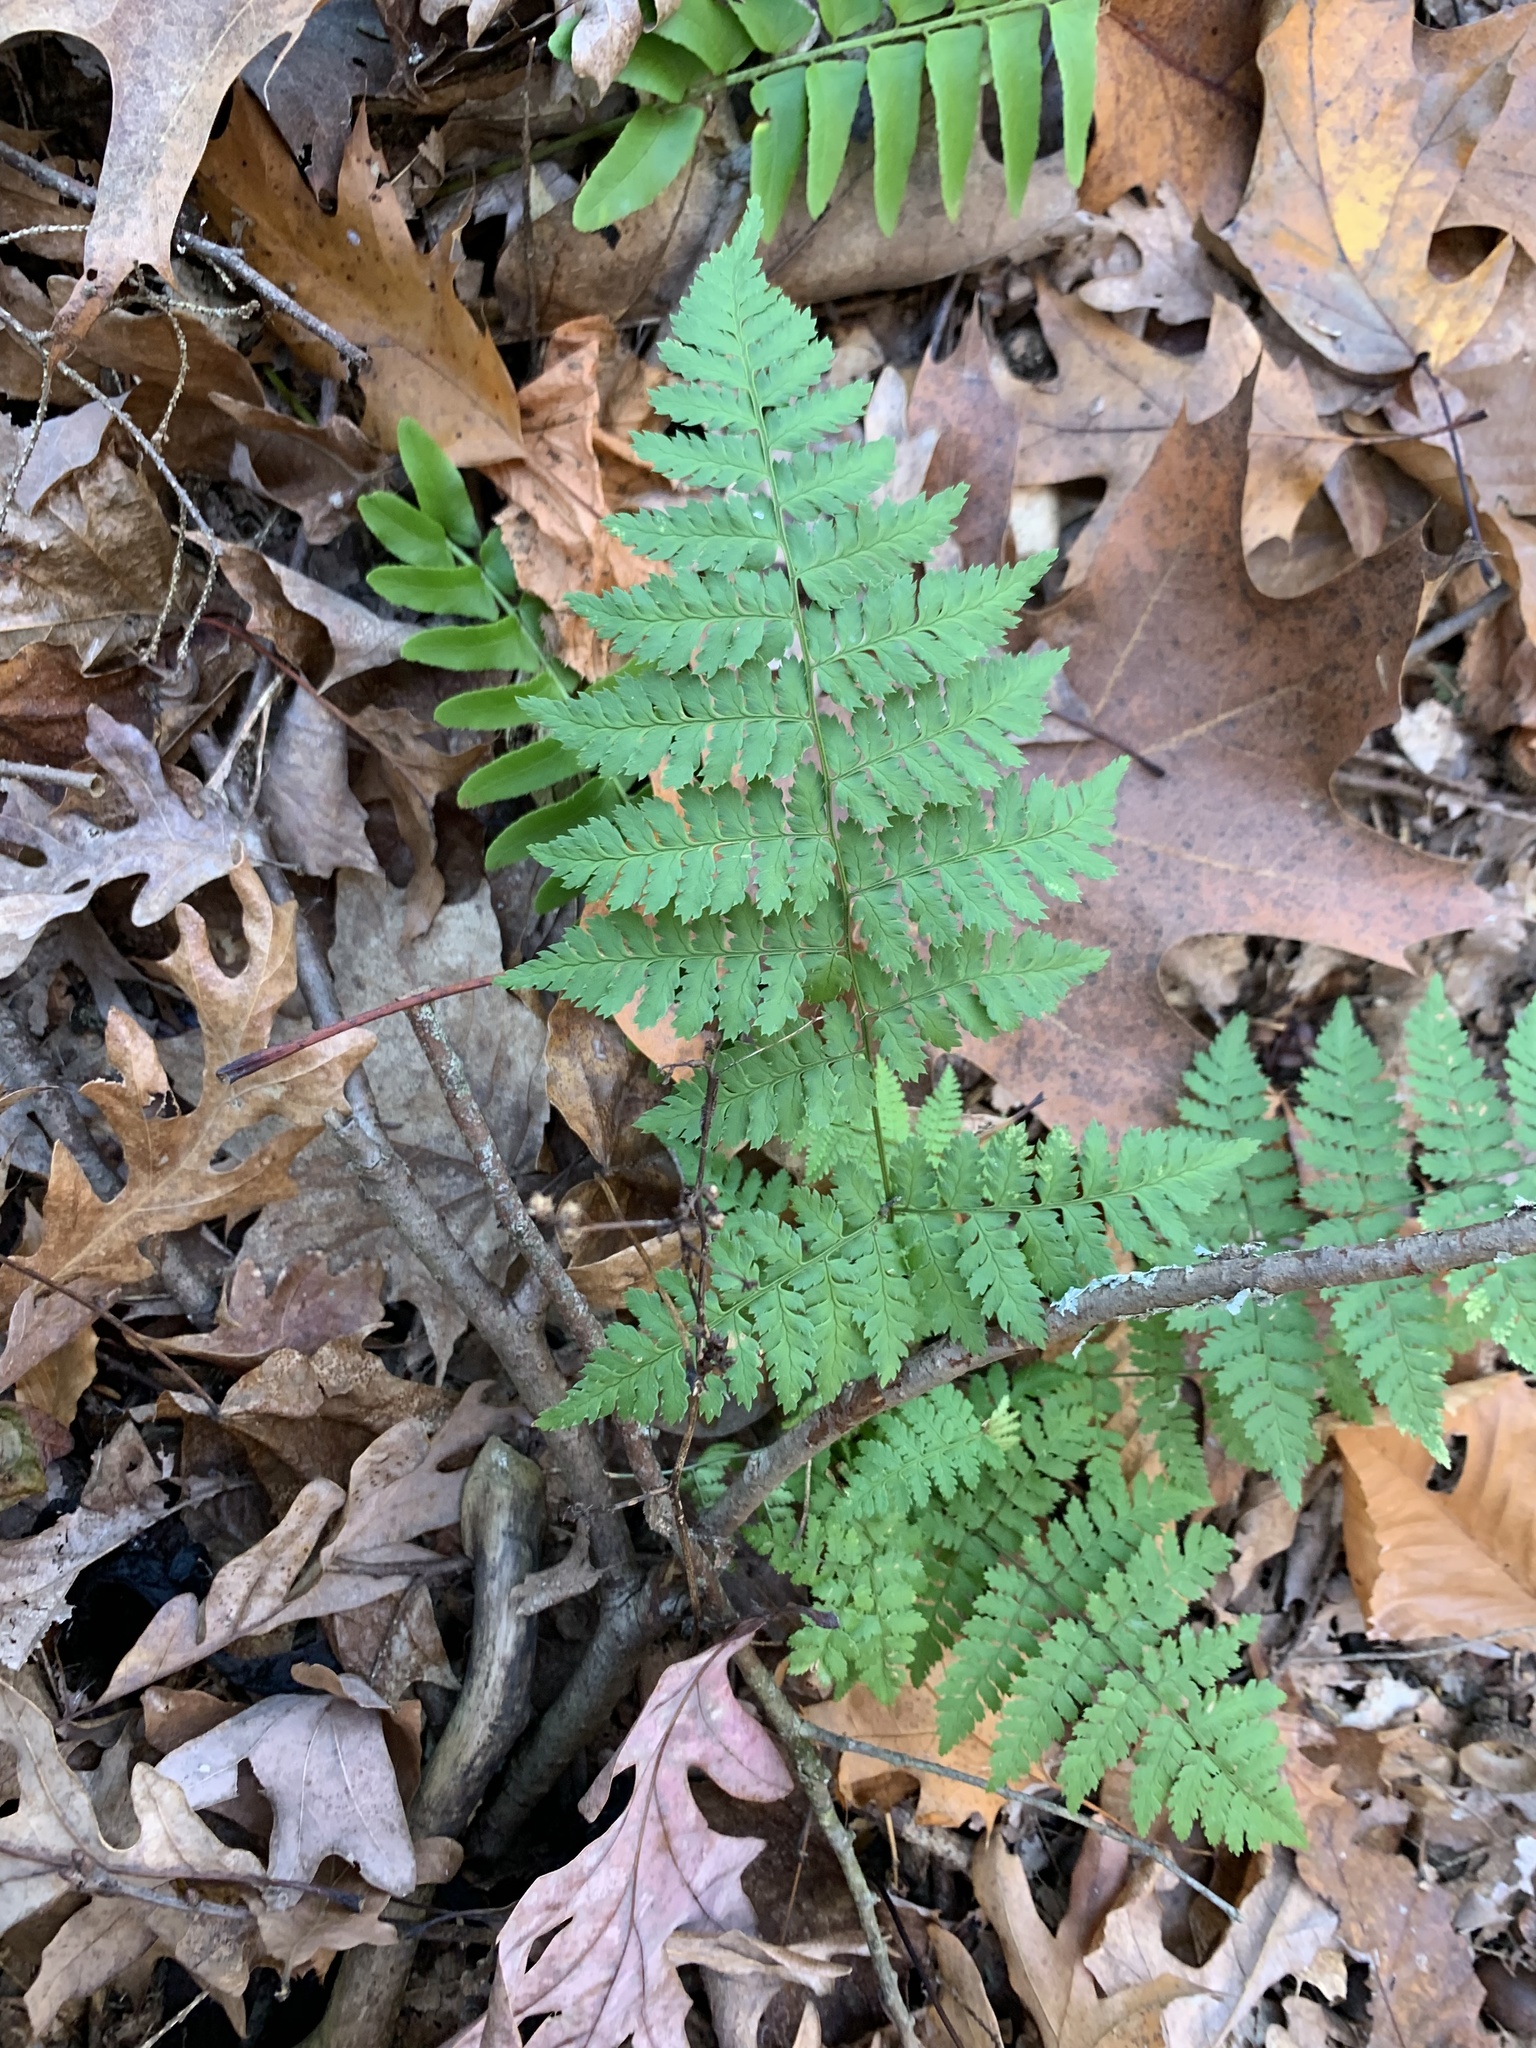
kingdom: Plantae
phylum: Tracheophyta
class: Polypodiopsida
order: Polypodiales
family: Dryopteridaceae
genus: Dryopteris
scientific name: Dryopteris intermedia
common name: Evergreen wood fern
